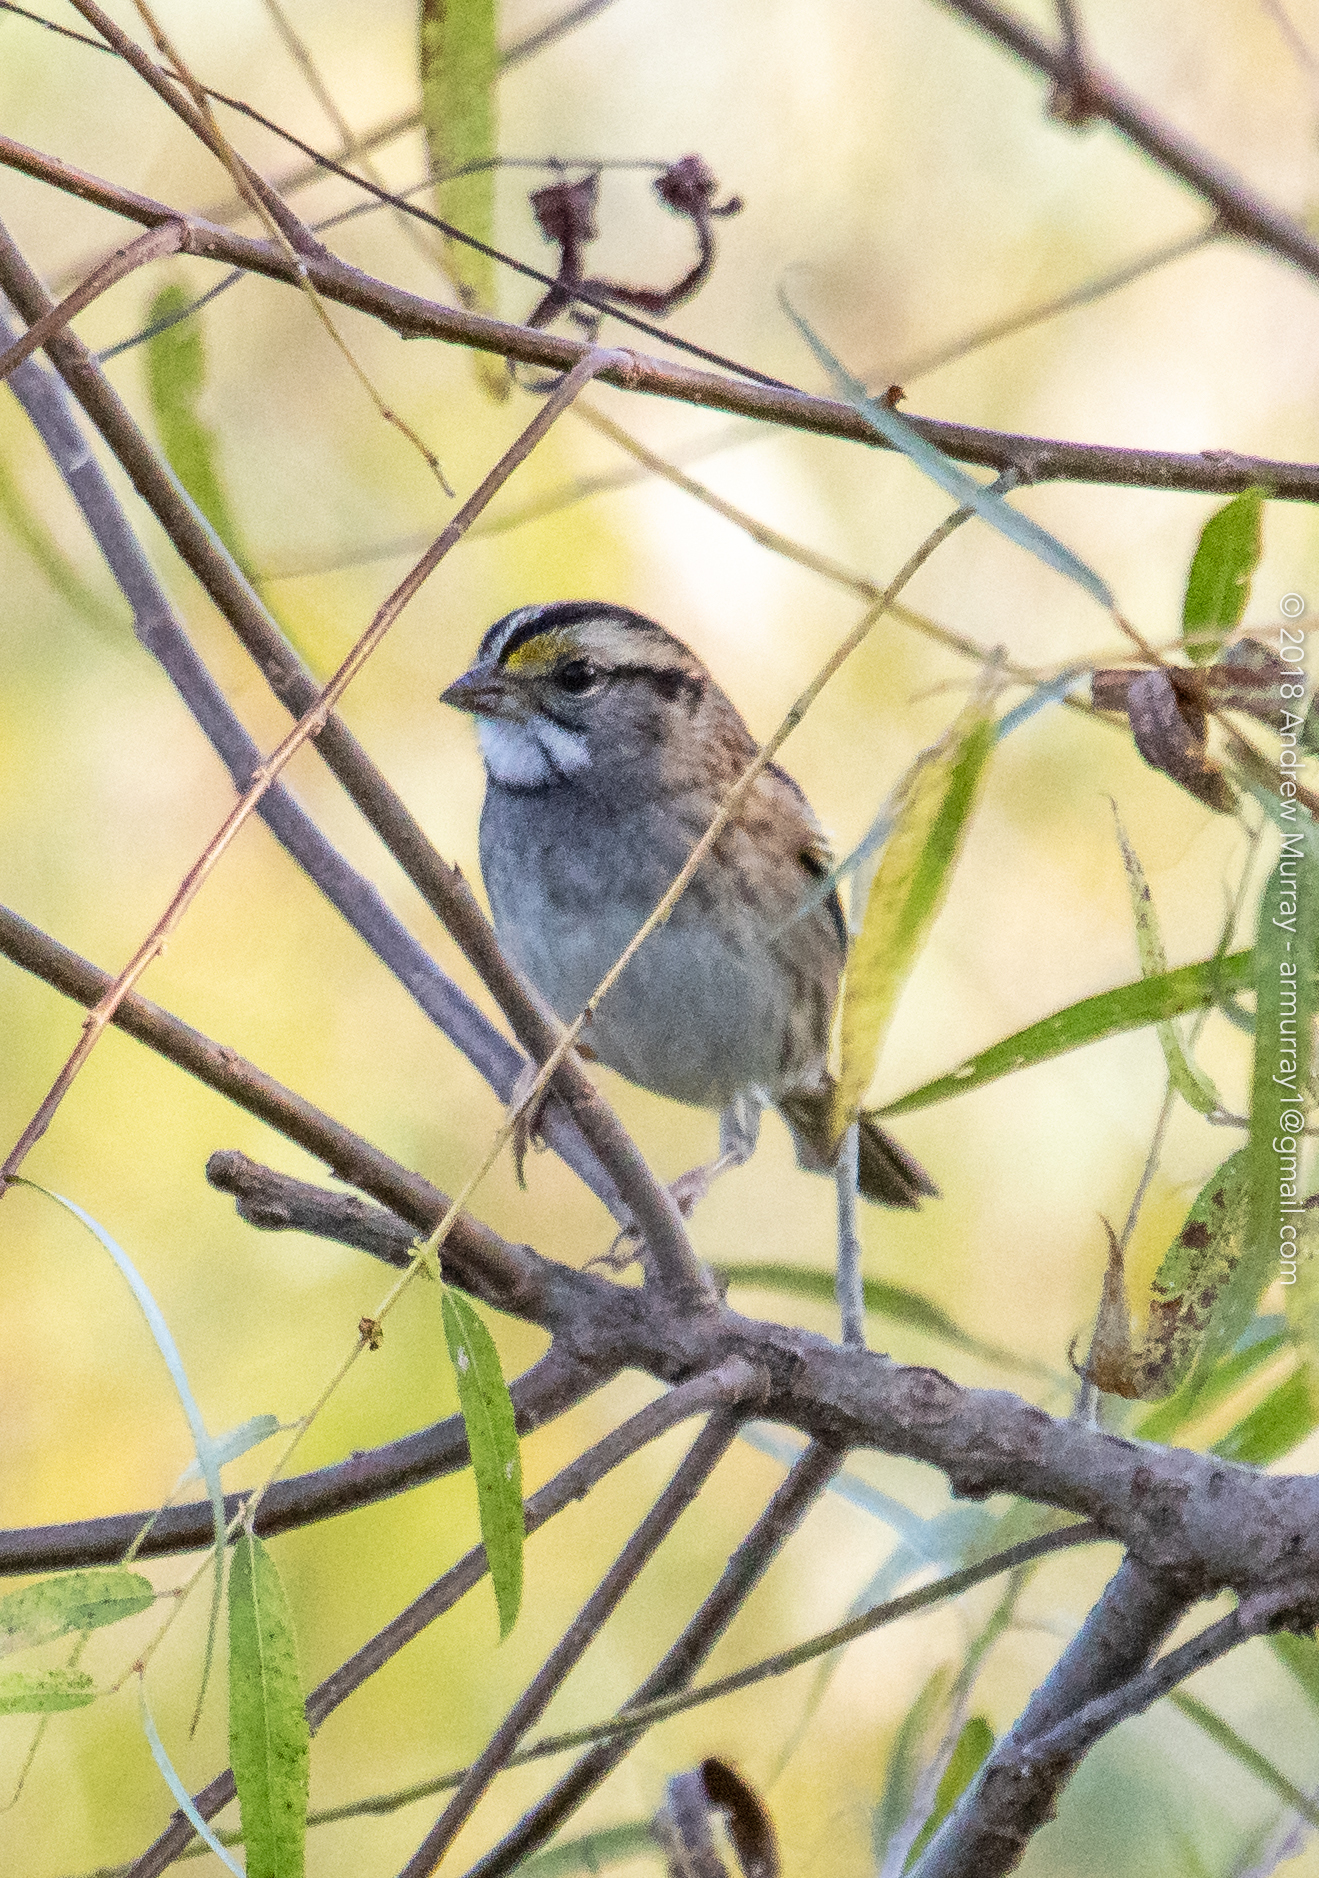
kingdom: Animalia
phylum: Chordata
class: Aves
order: Passeriformes
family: Passerellidae
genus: Zonotrichia
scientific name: Zonotrichia albicollis
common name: White-throated sparrow
